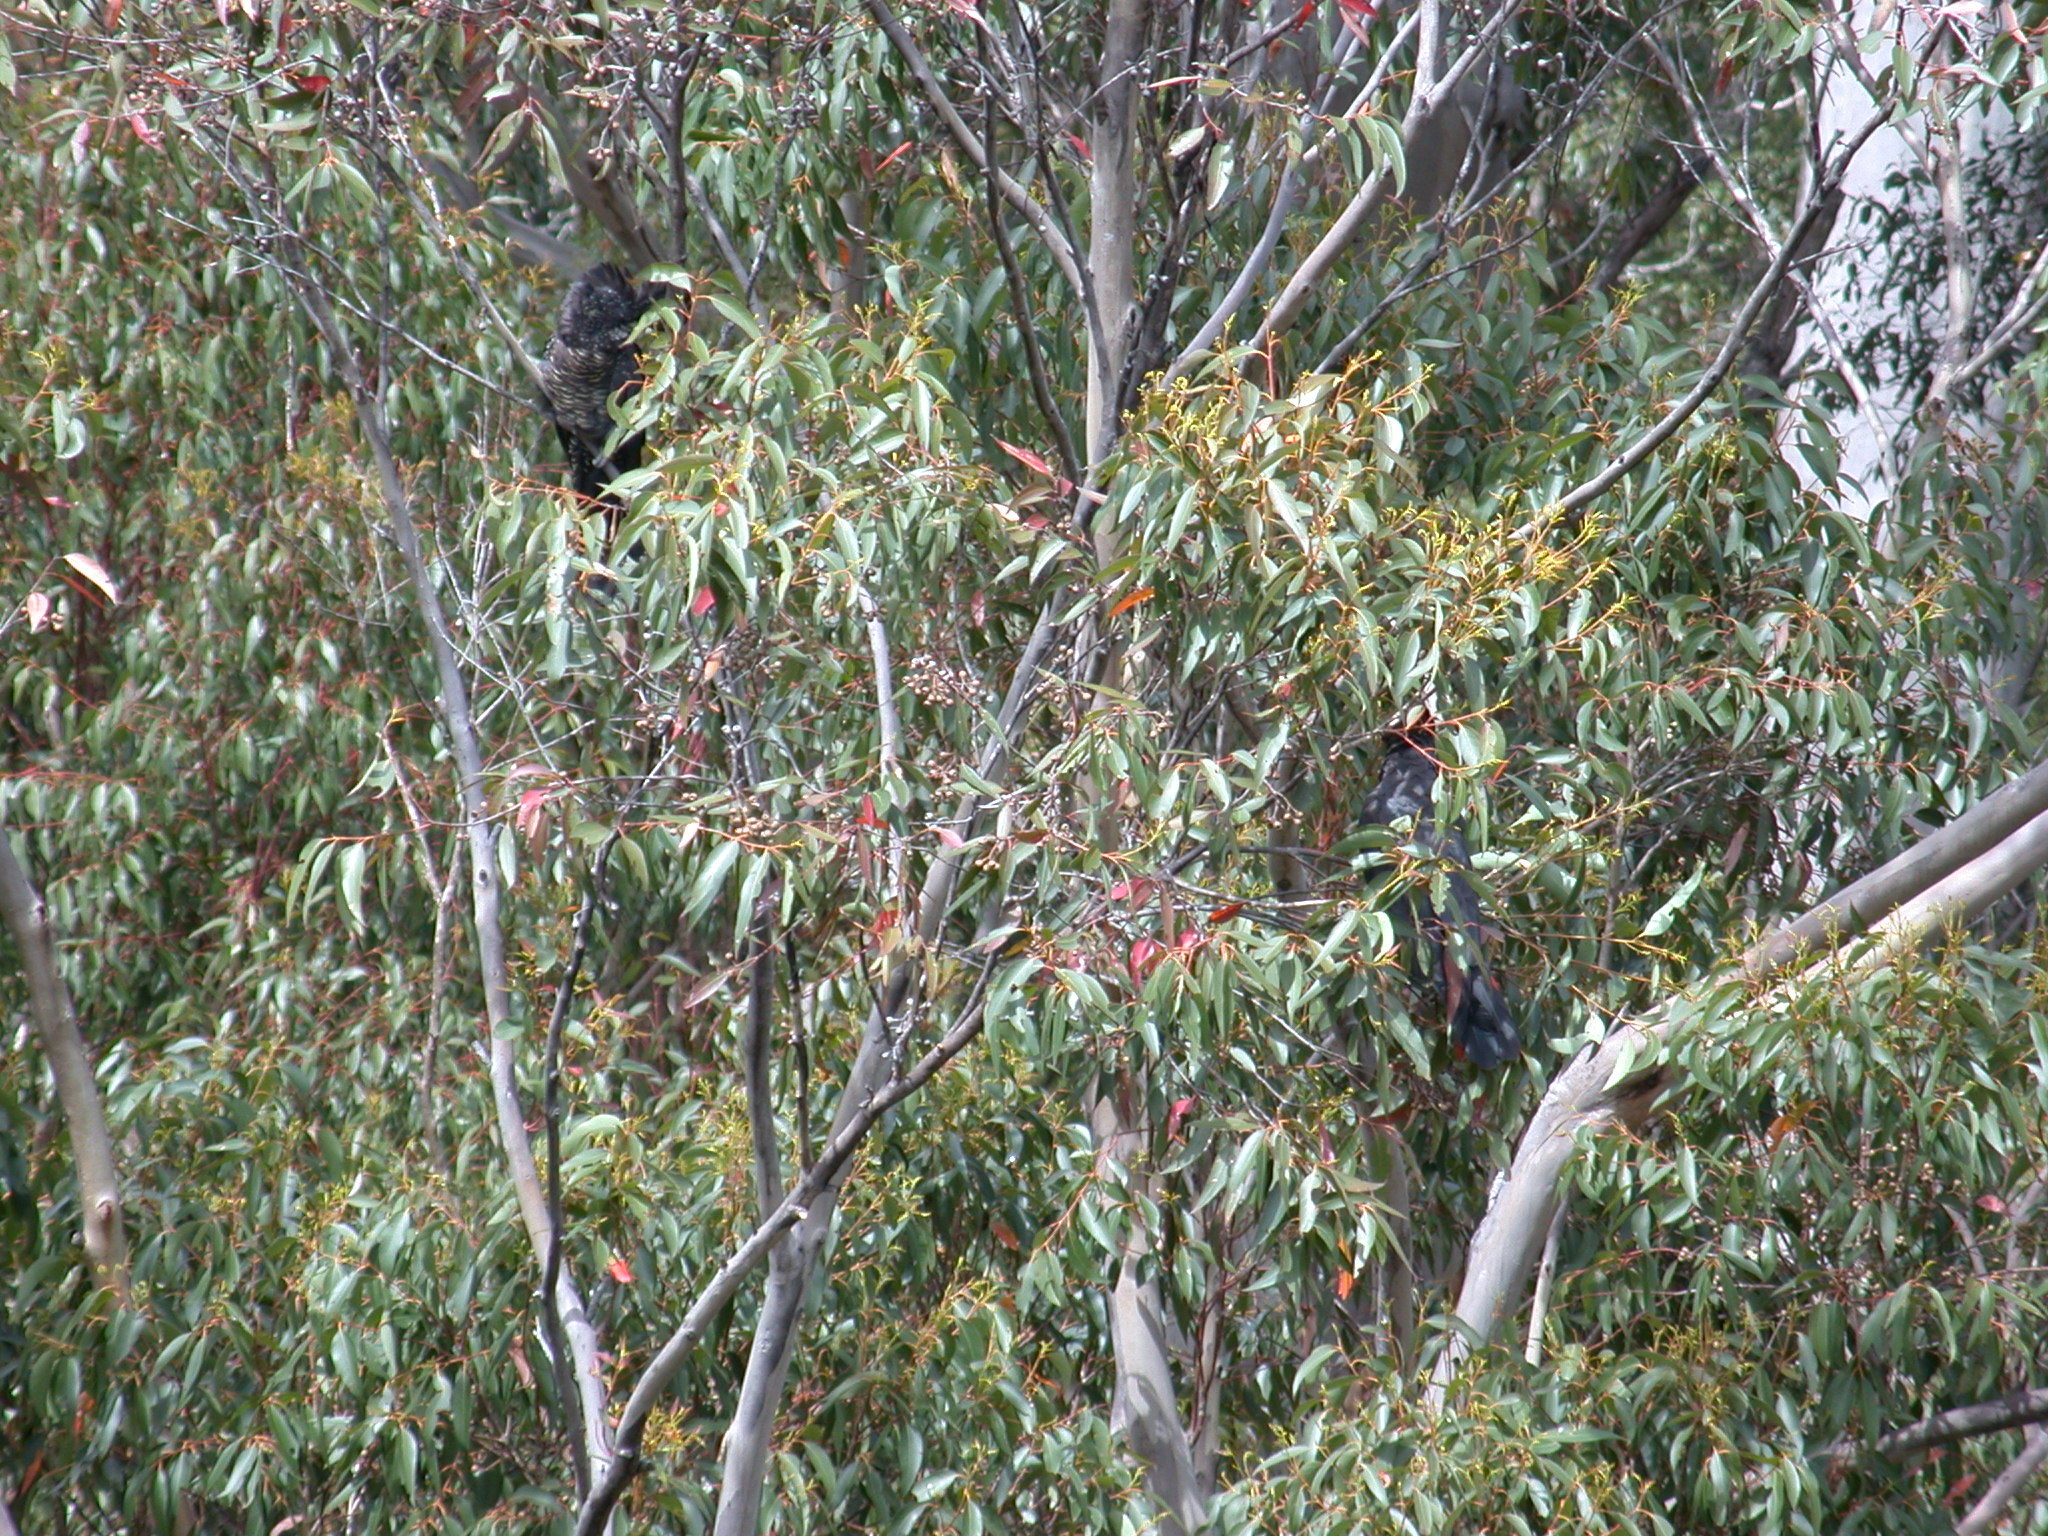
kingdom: Animalia
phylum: Chordata
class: Aves
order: Psittaciformes
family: Psittacidae
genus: Calyptorhynchus
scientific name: Calyptorhynchus banksii
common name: Red-tailed black cockatoo
